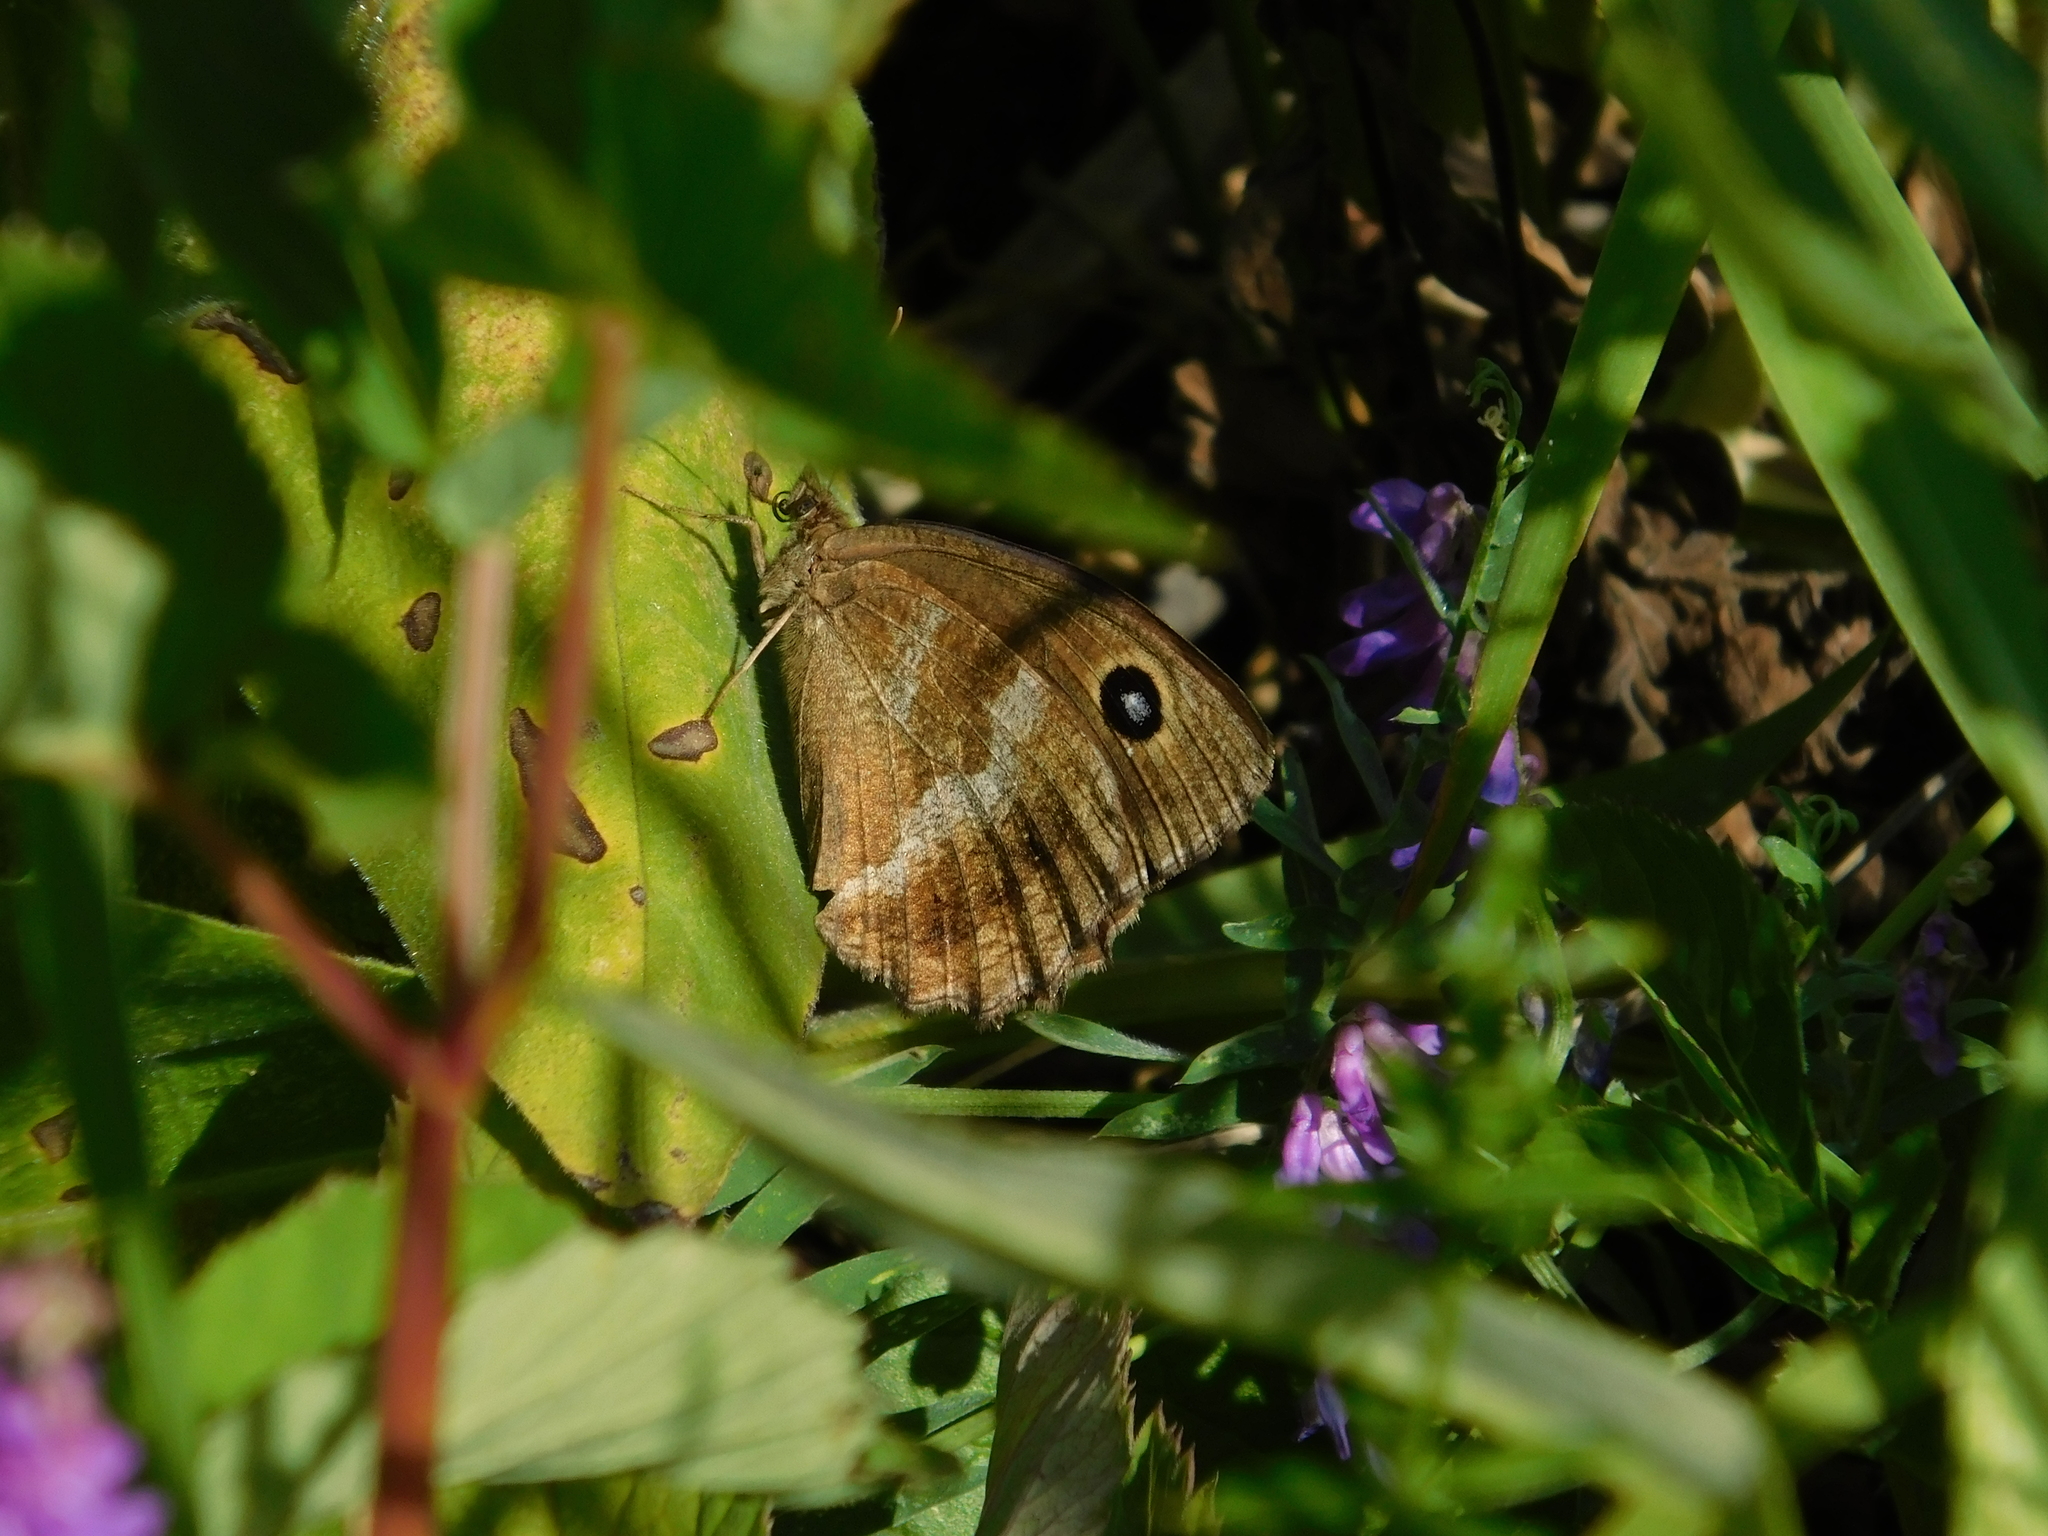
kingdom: Animalia
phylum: Arthropoda
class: Insecta
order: Lepidoptera
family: Nymphalidae
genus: Minois
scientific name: Minois dryas
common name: Dryad
